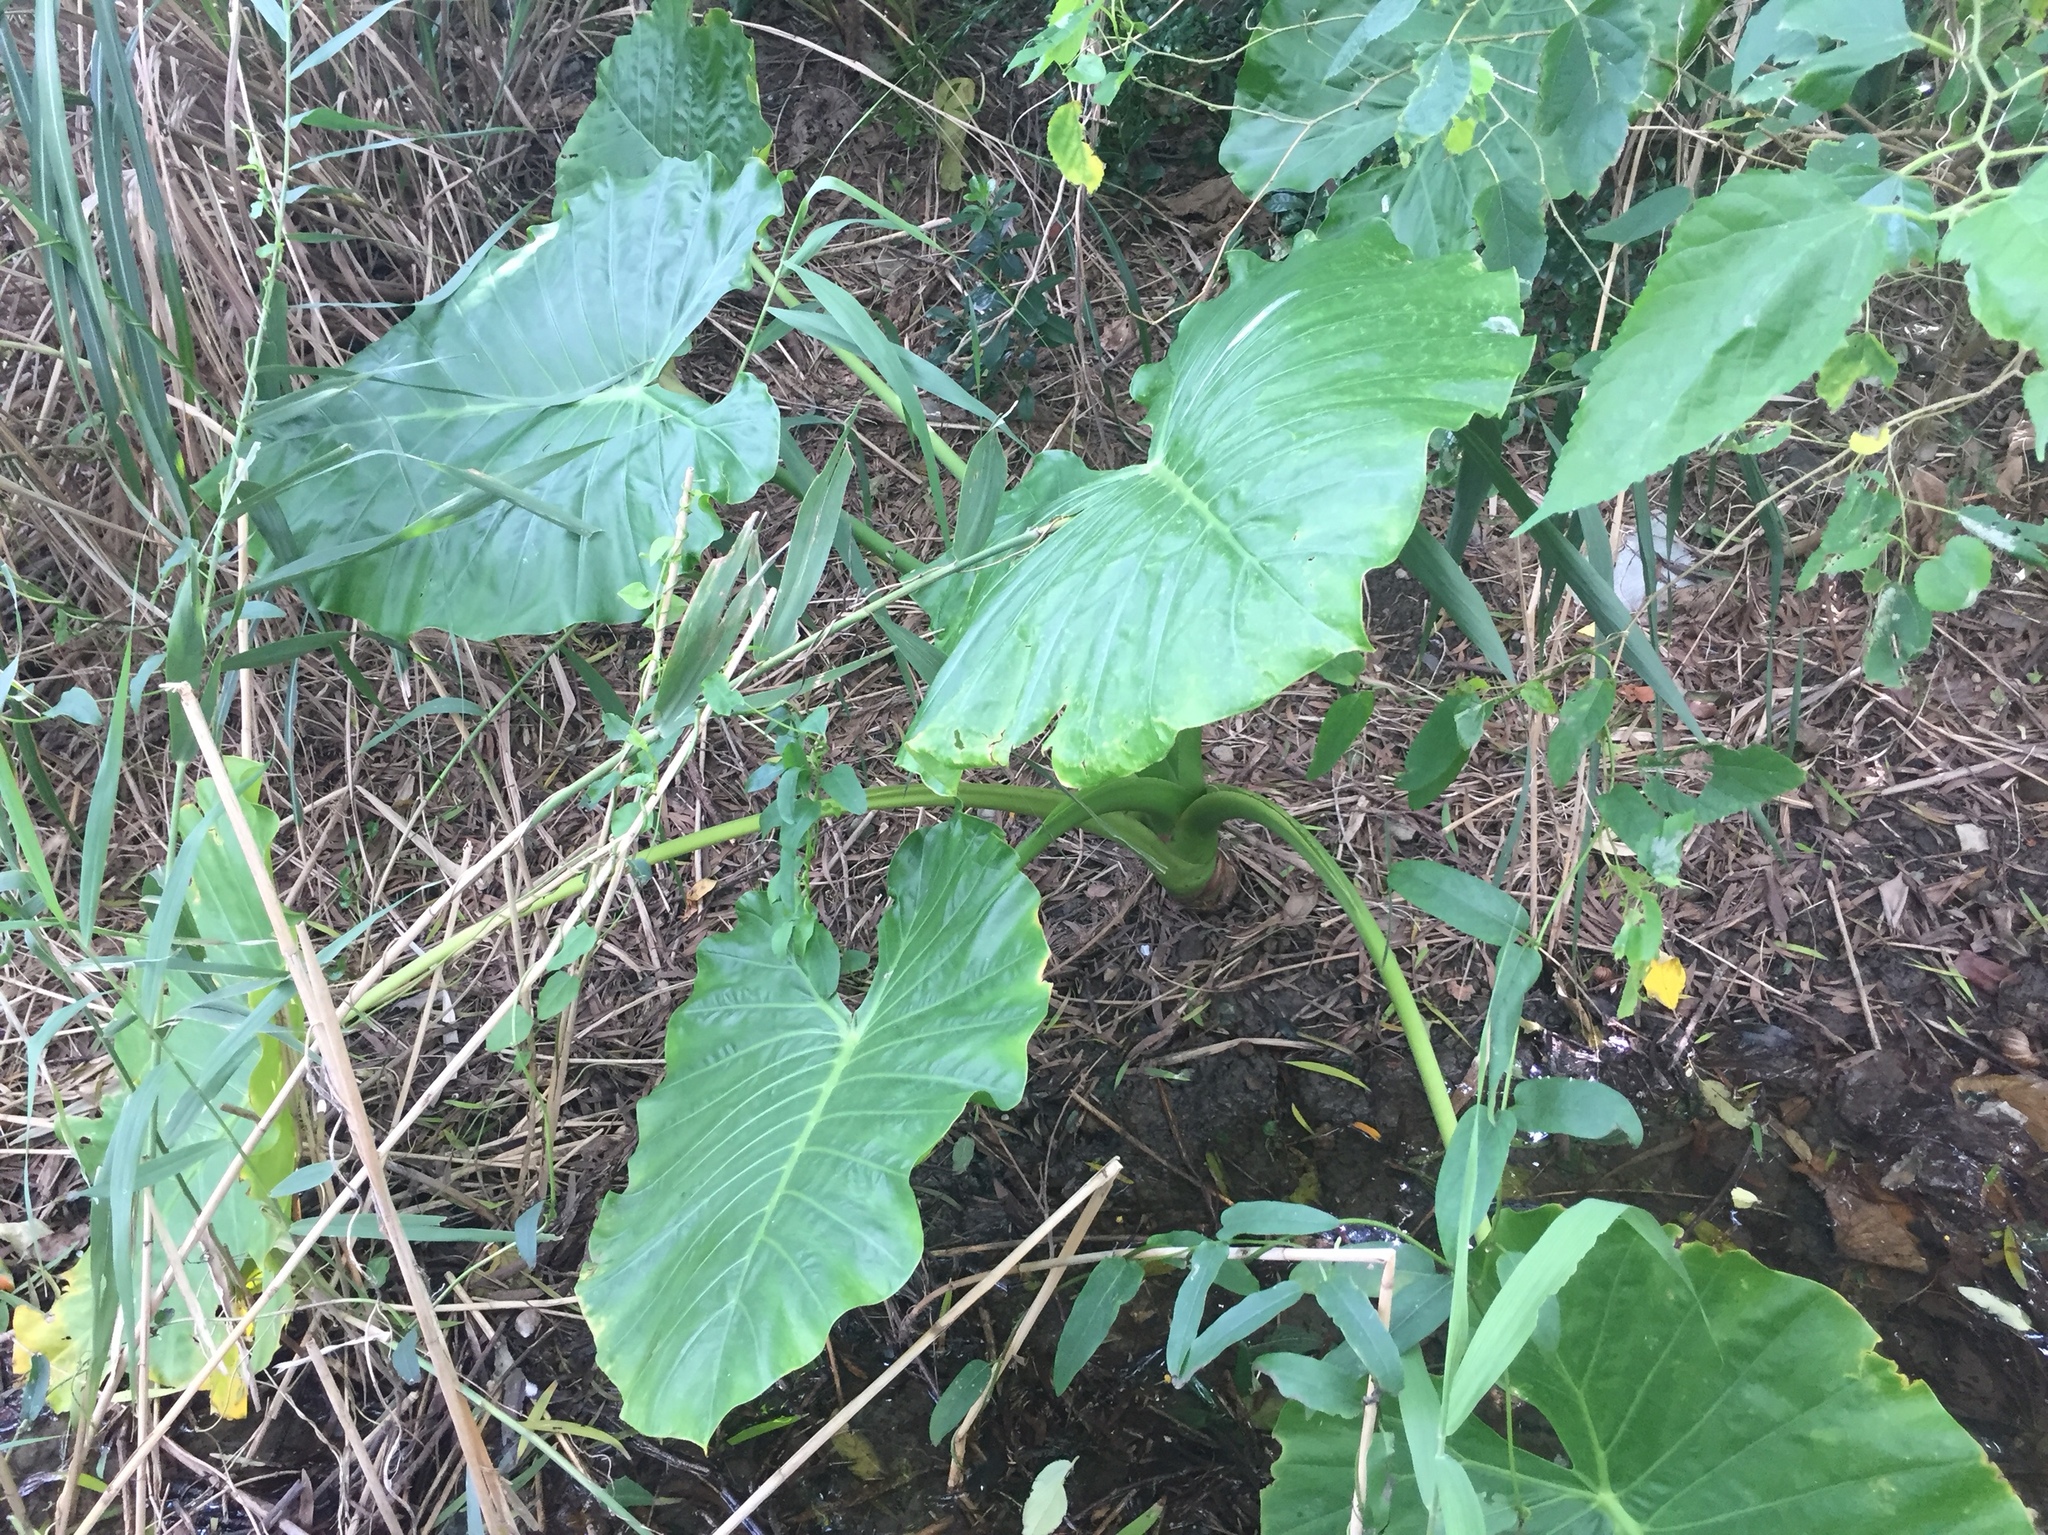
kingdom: Plantae
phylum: Tracheophyta
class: Liliopsida
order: Alismatales
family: Araceae
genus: Alocasia
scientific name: Alocasia odora
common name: Asian taro
